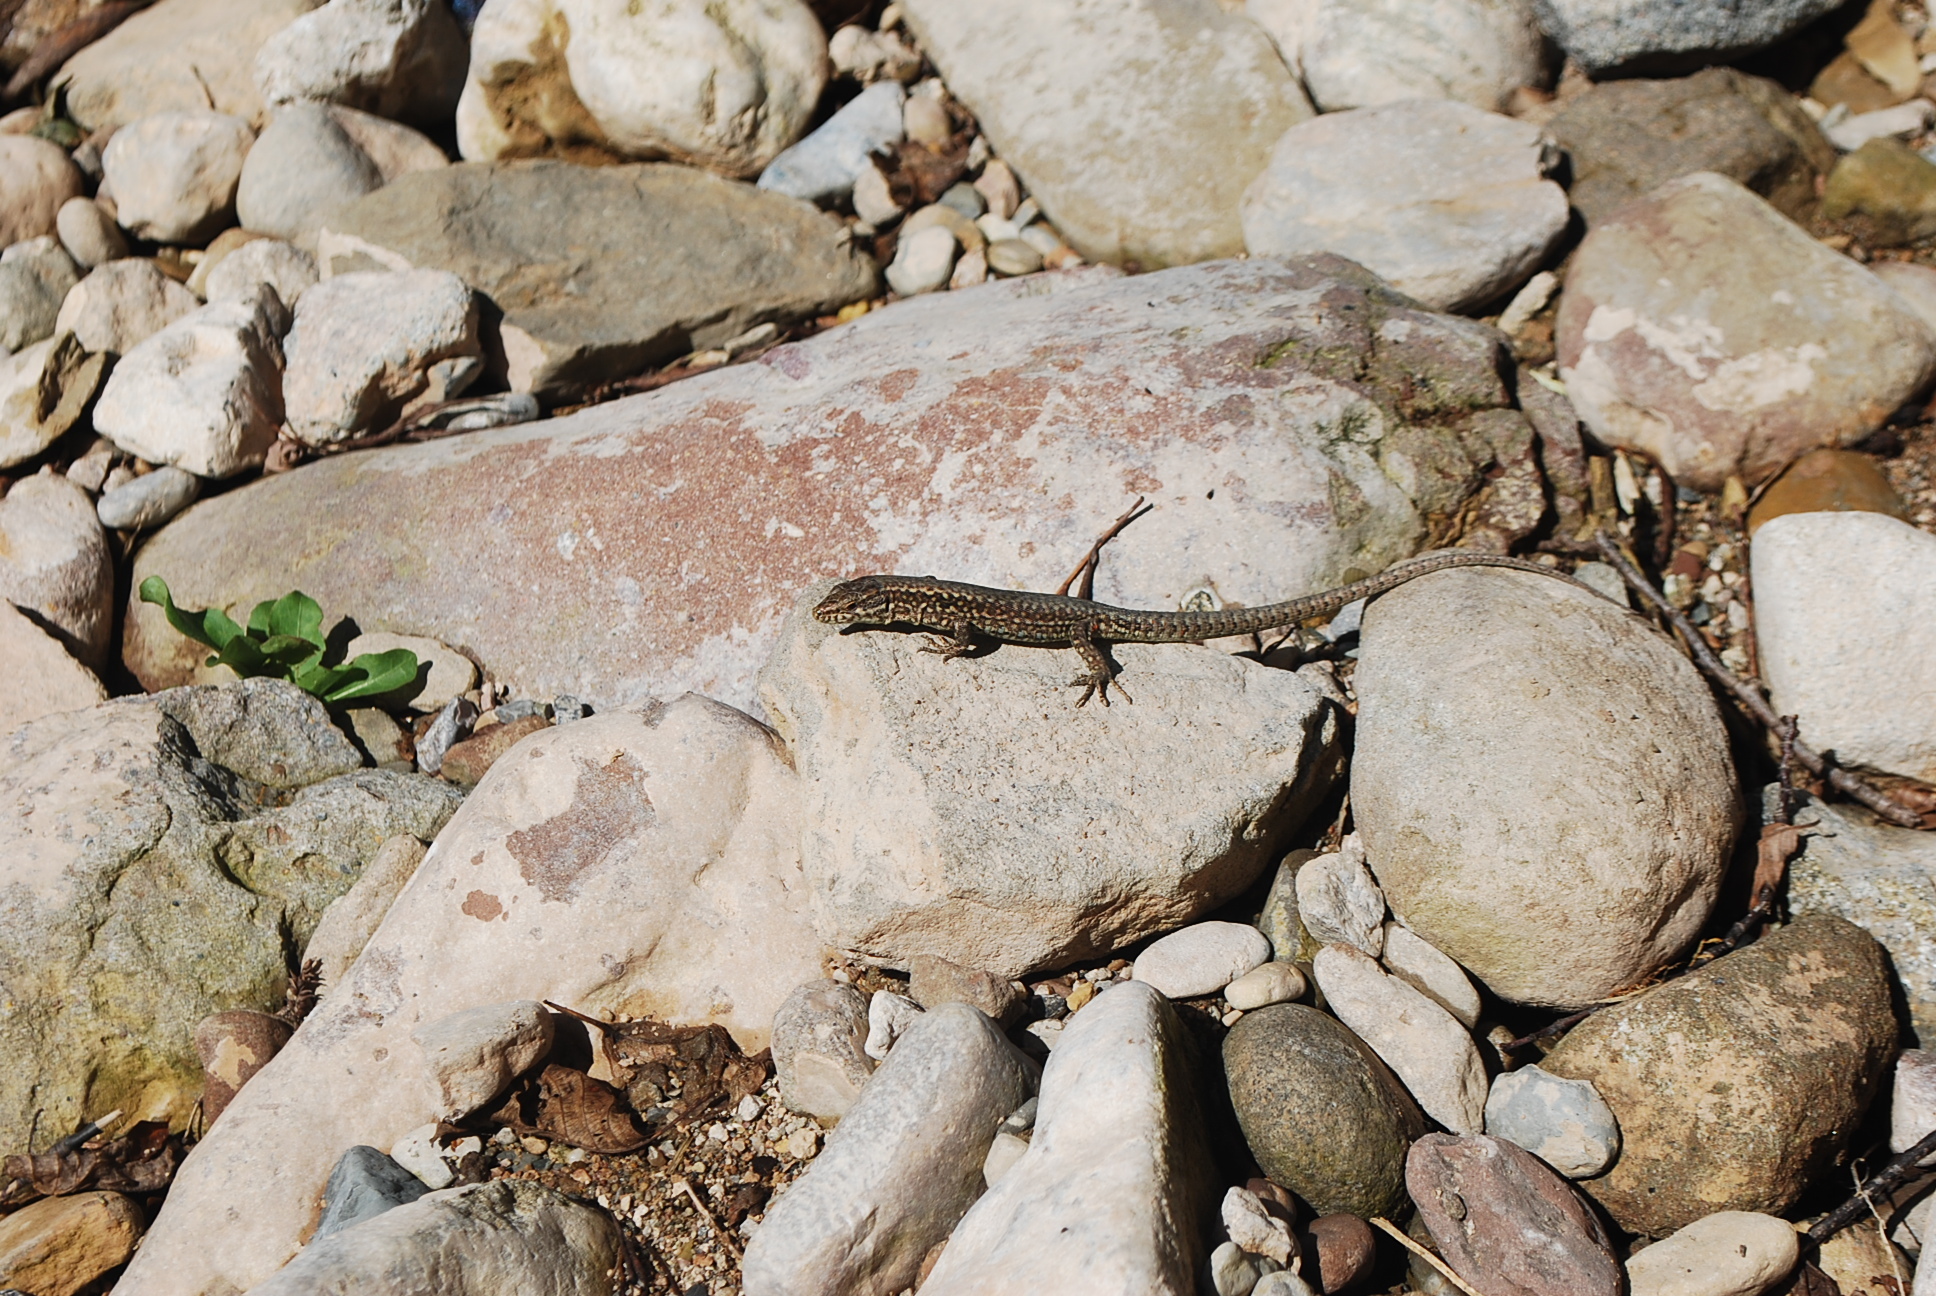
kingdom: Animalia
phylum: Chordata
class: Squamata
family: Lacertidae
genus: Podarcis
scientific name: Podarcis muralis
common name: Common wall lizard
